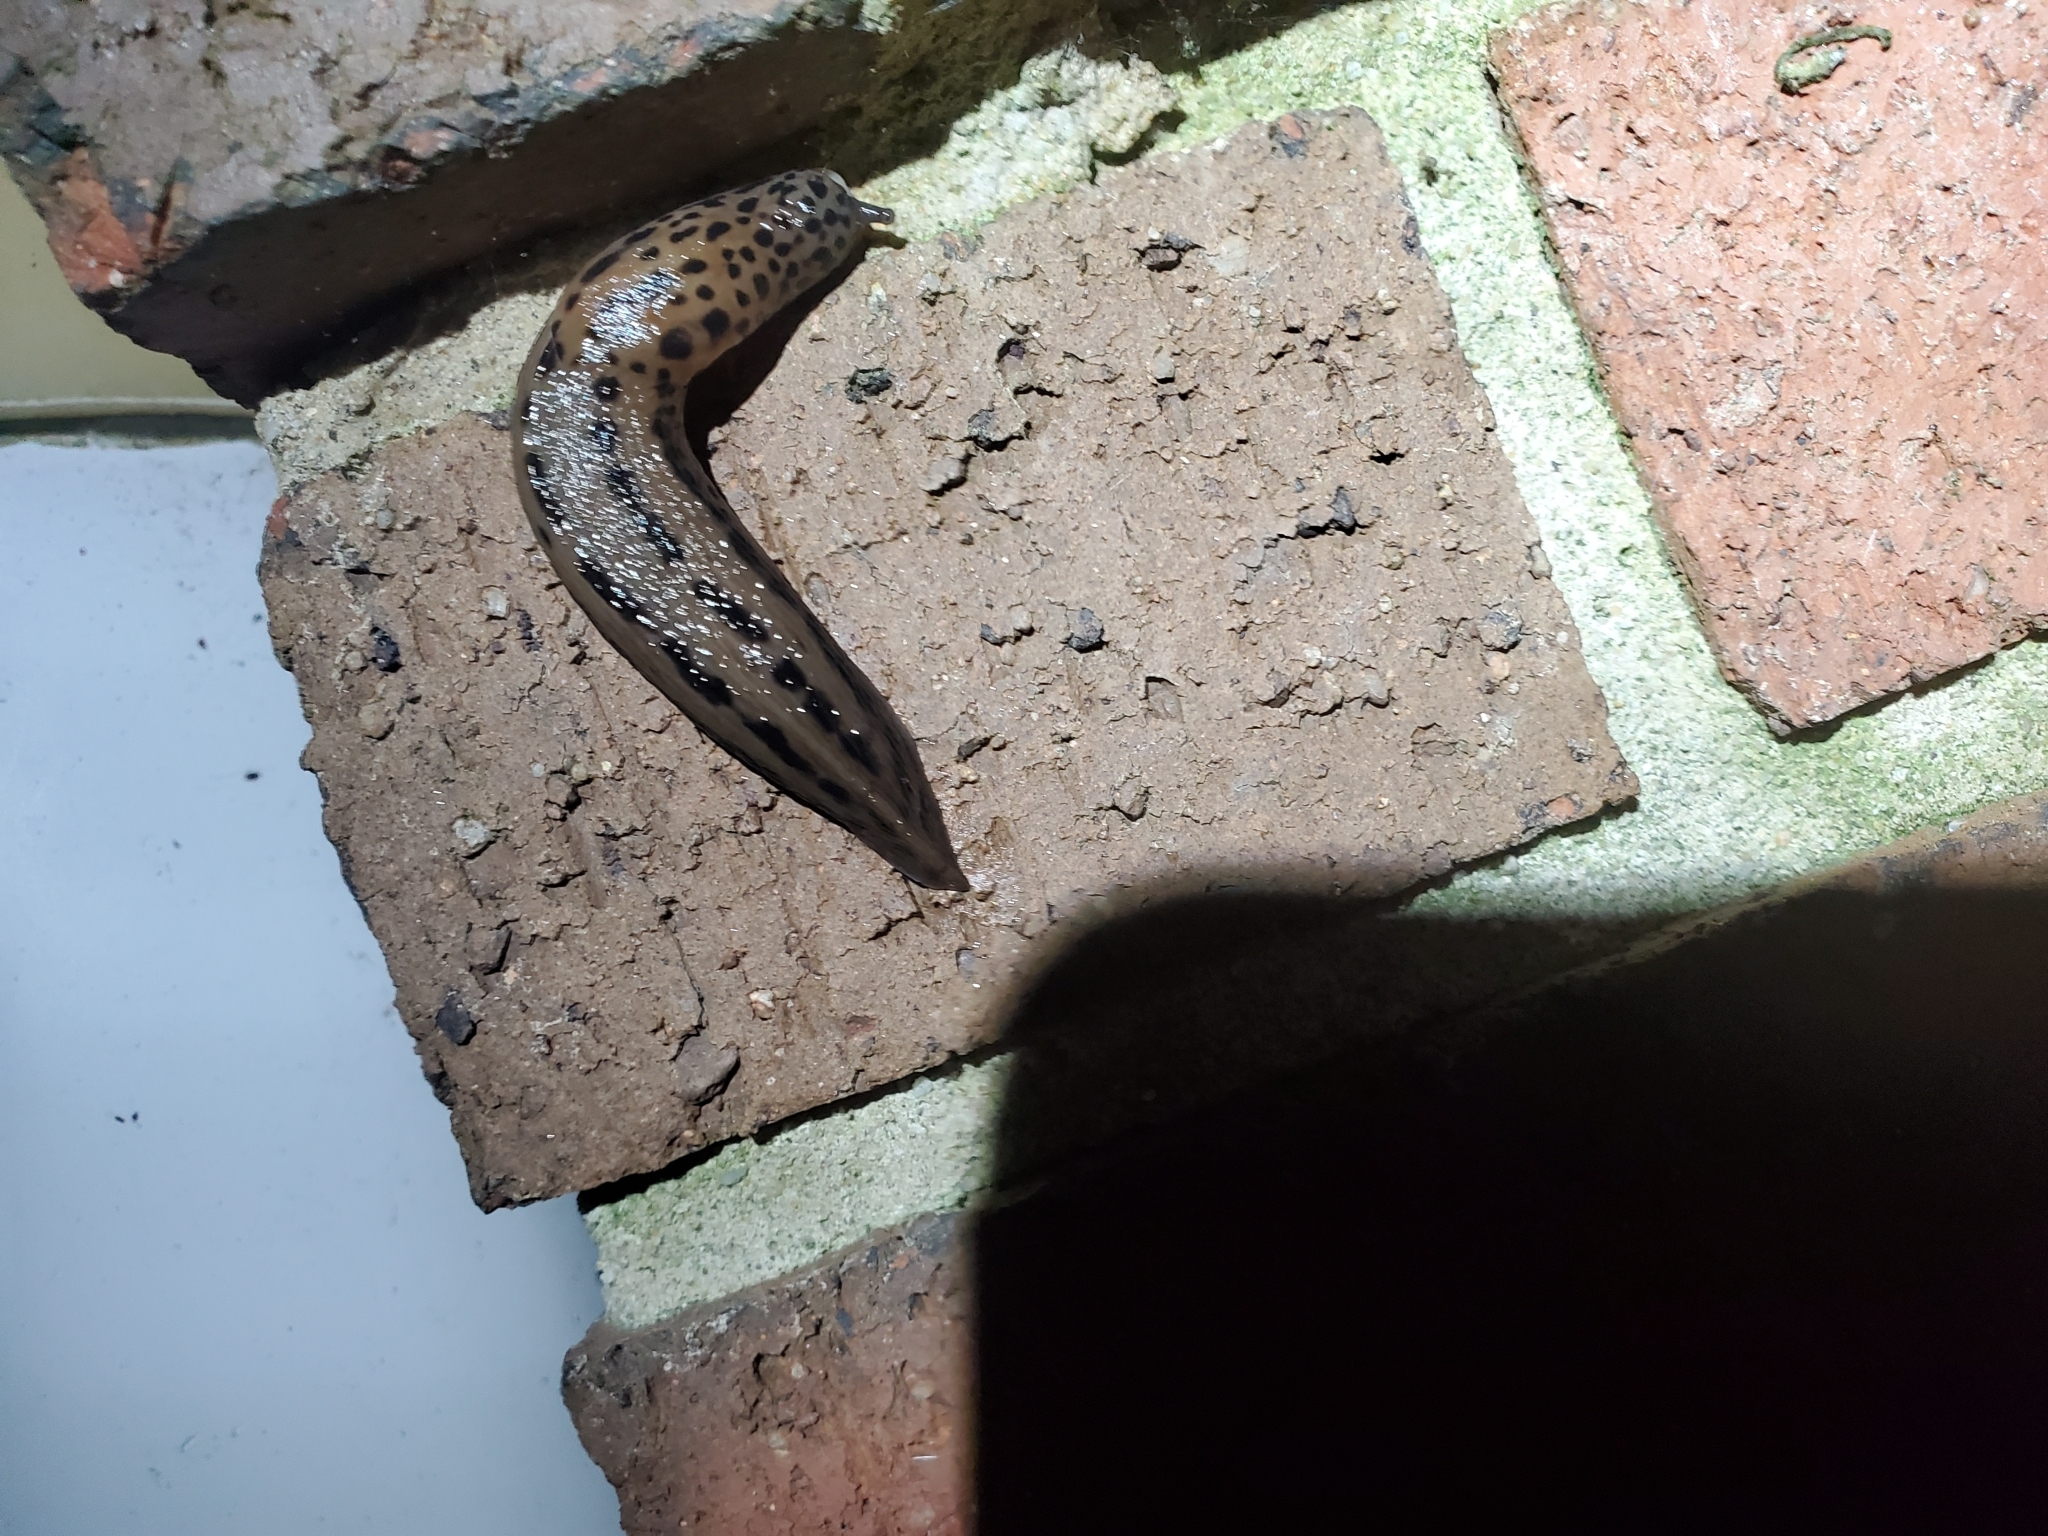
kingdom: Animalia
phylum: Mollusca
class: Gastropoda
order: Stylommatophora
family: Limacidae
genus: Limax
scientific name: Limax maximus
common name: Great grey slug
